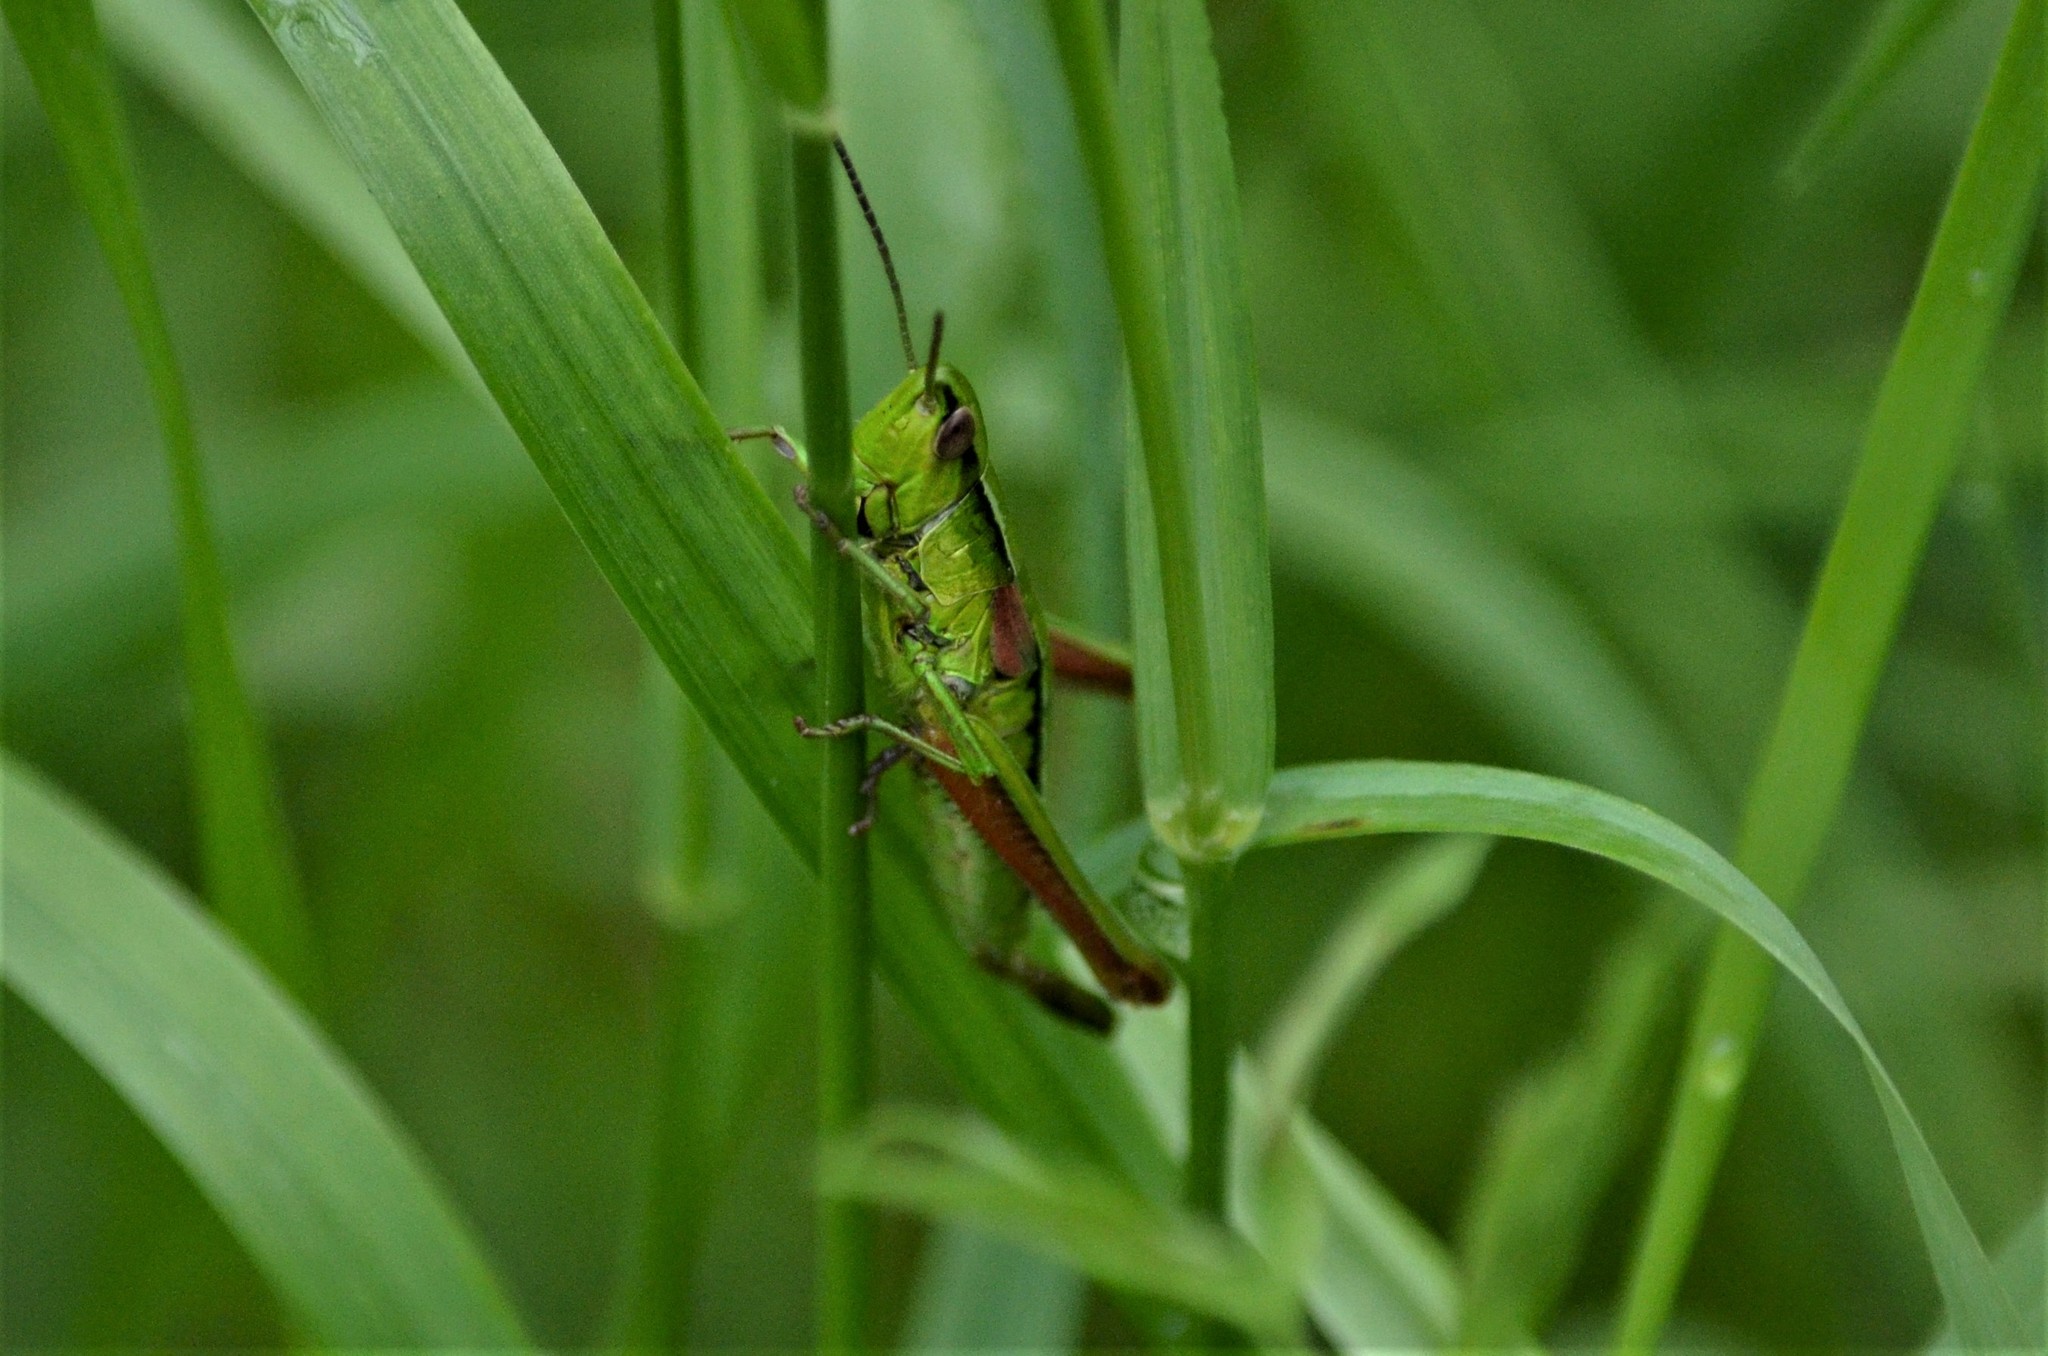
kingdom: Animalia
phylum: Arthropoda
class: Insecta
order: Orthoptera
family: Acrididae
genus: Euthystira
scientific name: Euthystira brachyptera
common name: Small gold grasshopper
